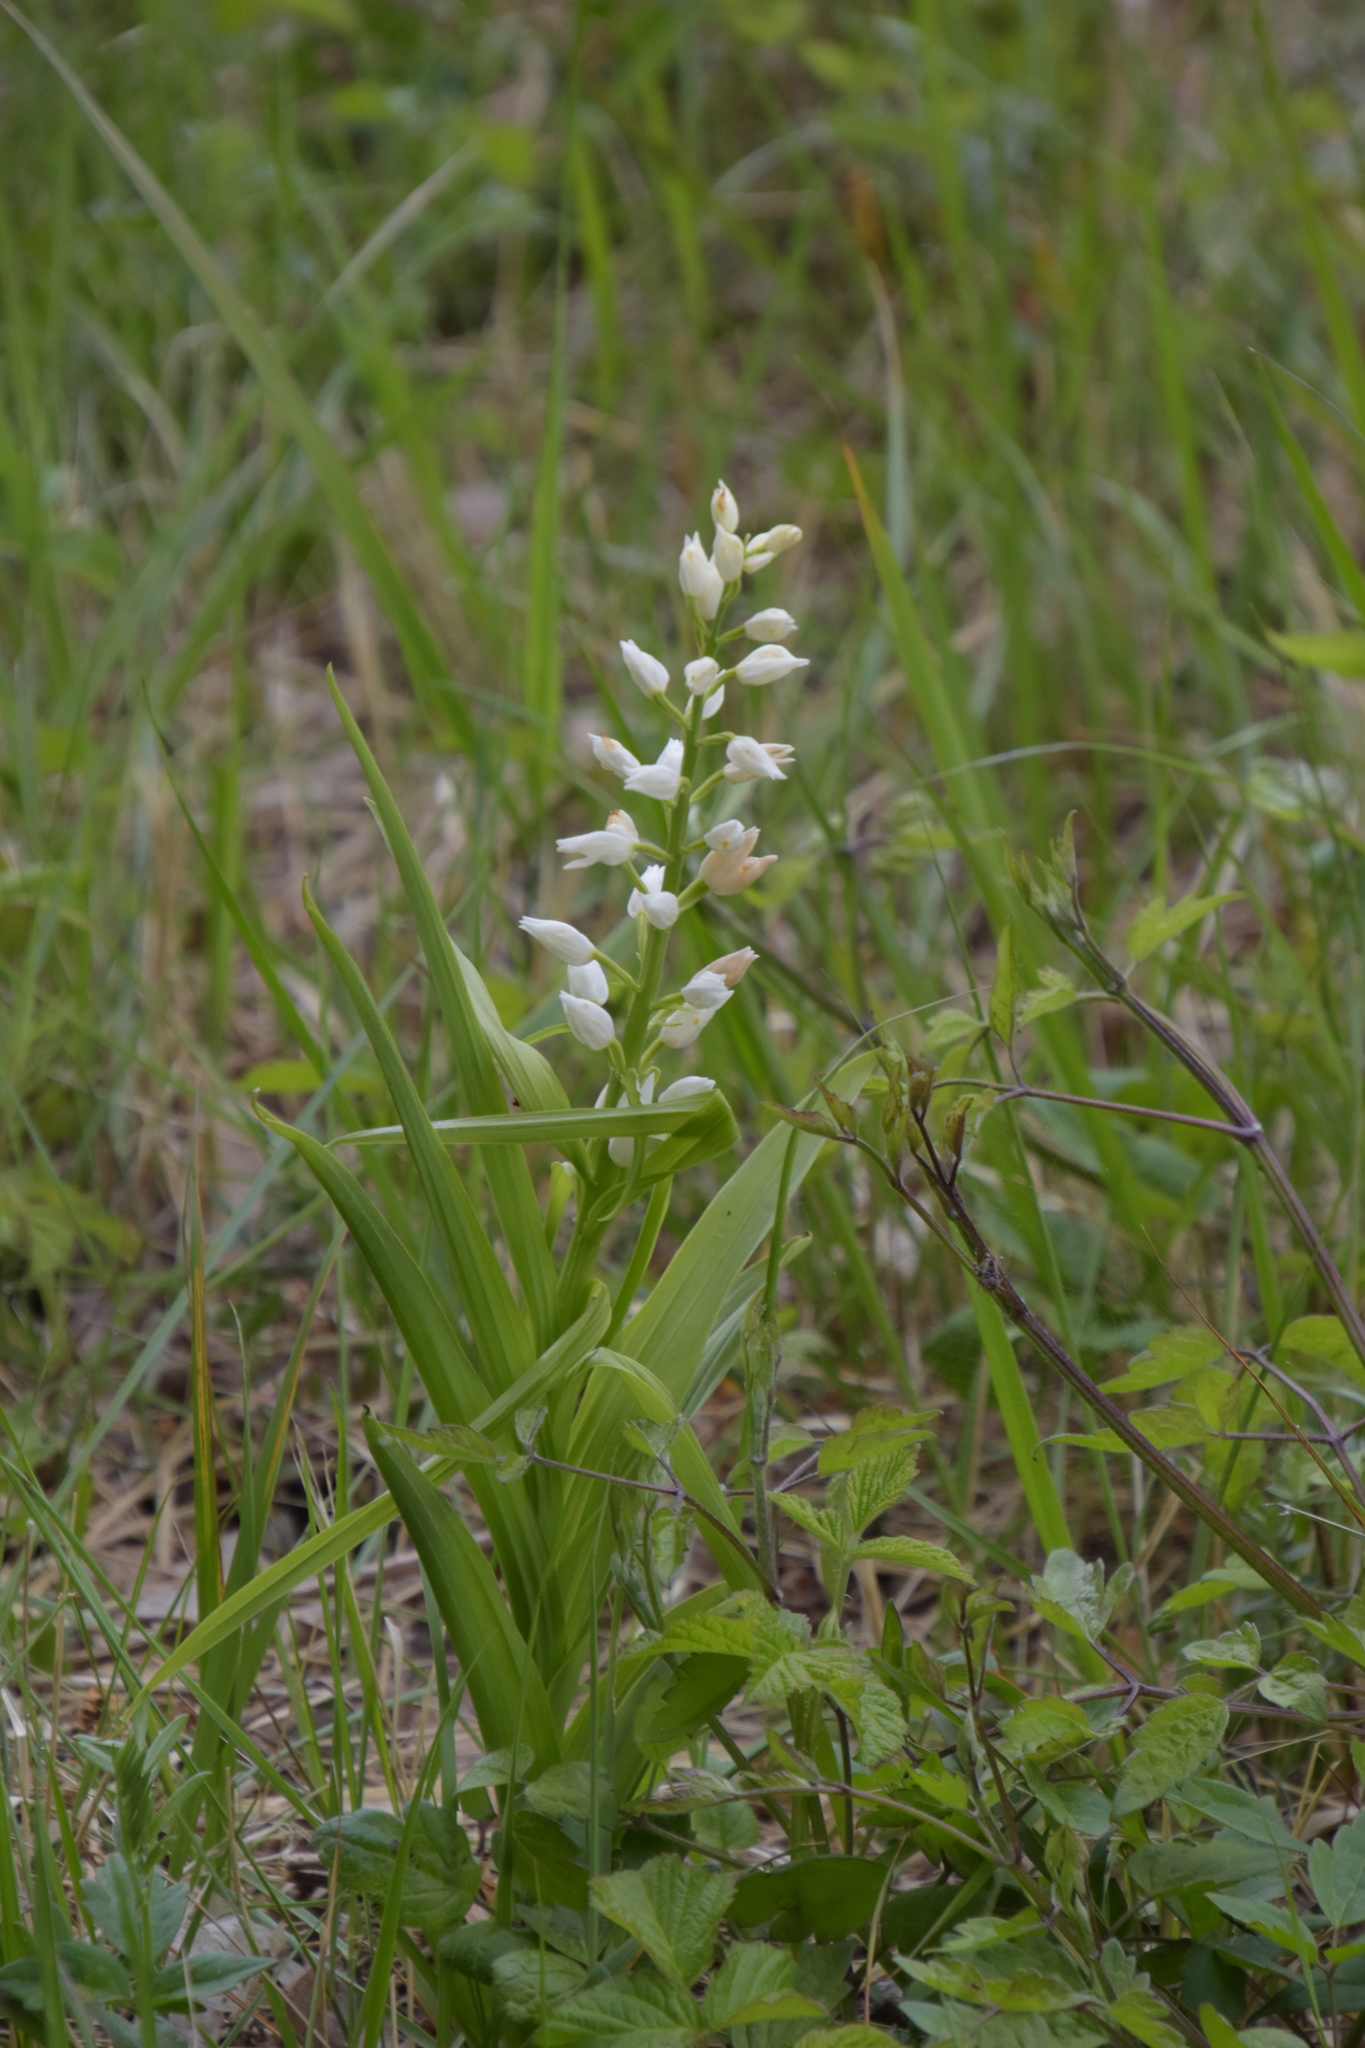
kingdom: Plantae
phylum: Tracheophyta
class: Liliopsida
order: Asparagales
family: Orchidaceae
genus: Cephalanthera
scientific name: Cephalanthera longifolia
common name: Narrow-leaved helleborine
